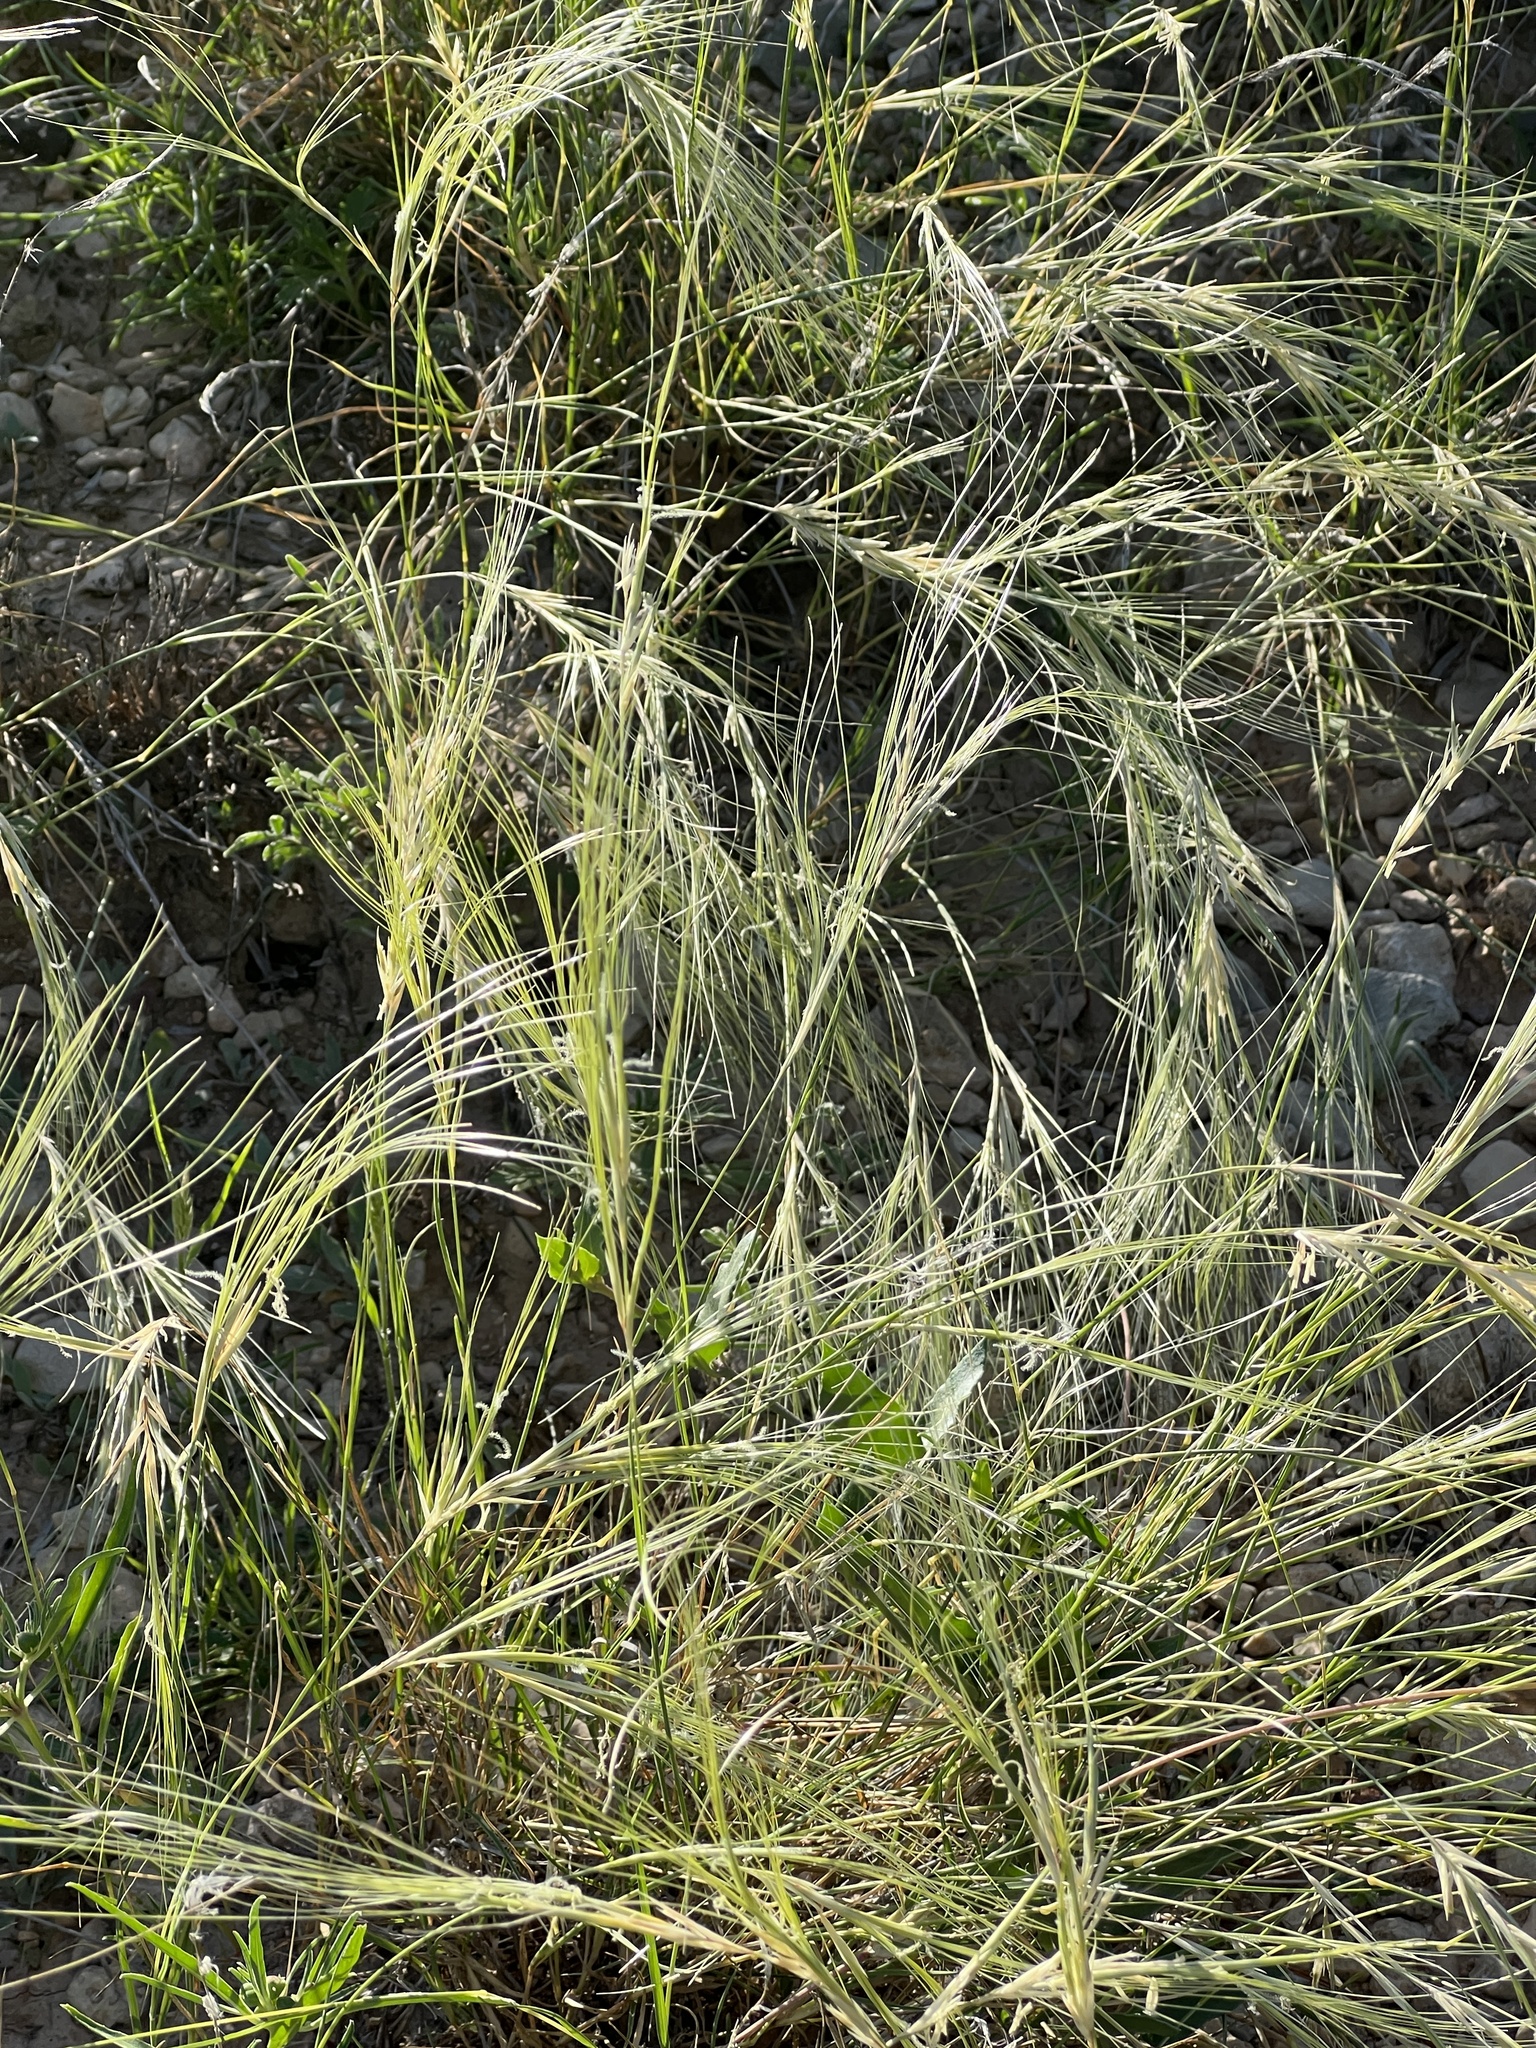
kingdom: Plantae
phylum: Tracheophyta
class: Liliopsida
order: Poales
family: Poaceae
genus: Scleropogon
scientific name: Scleropogon brevifolius
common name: Burro grass
